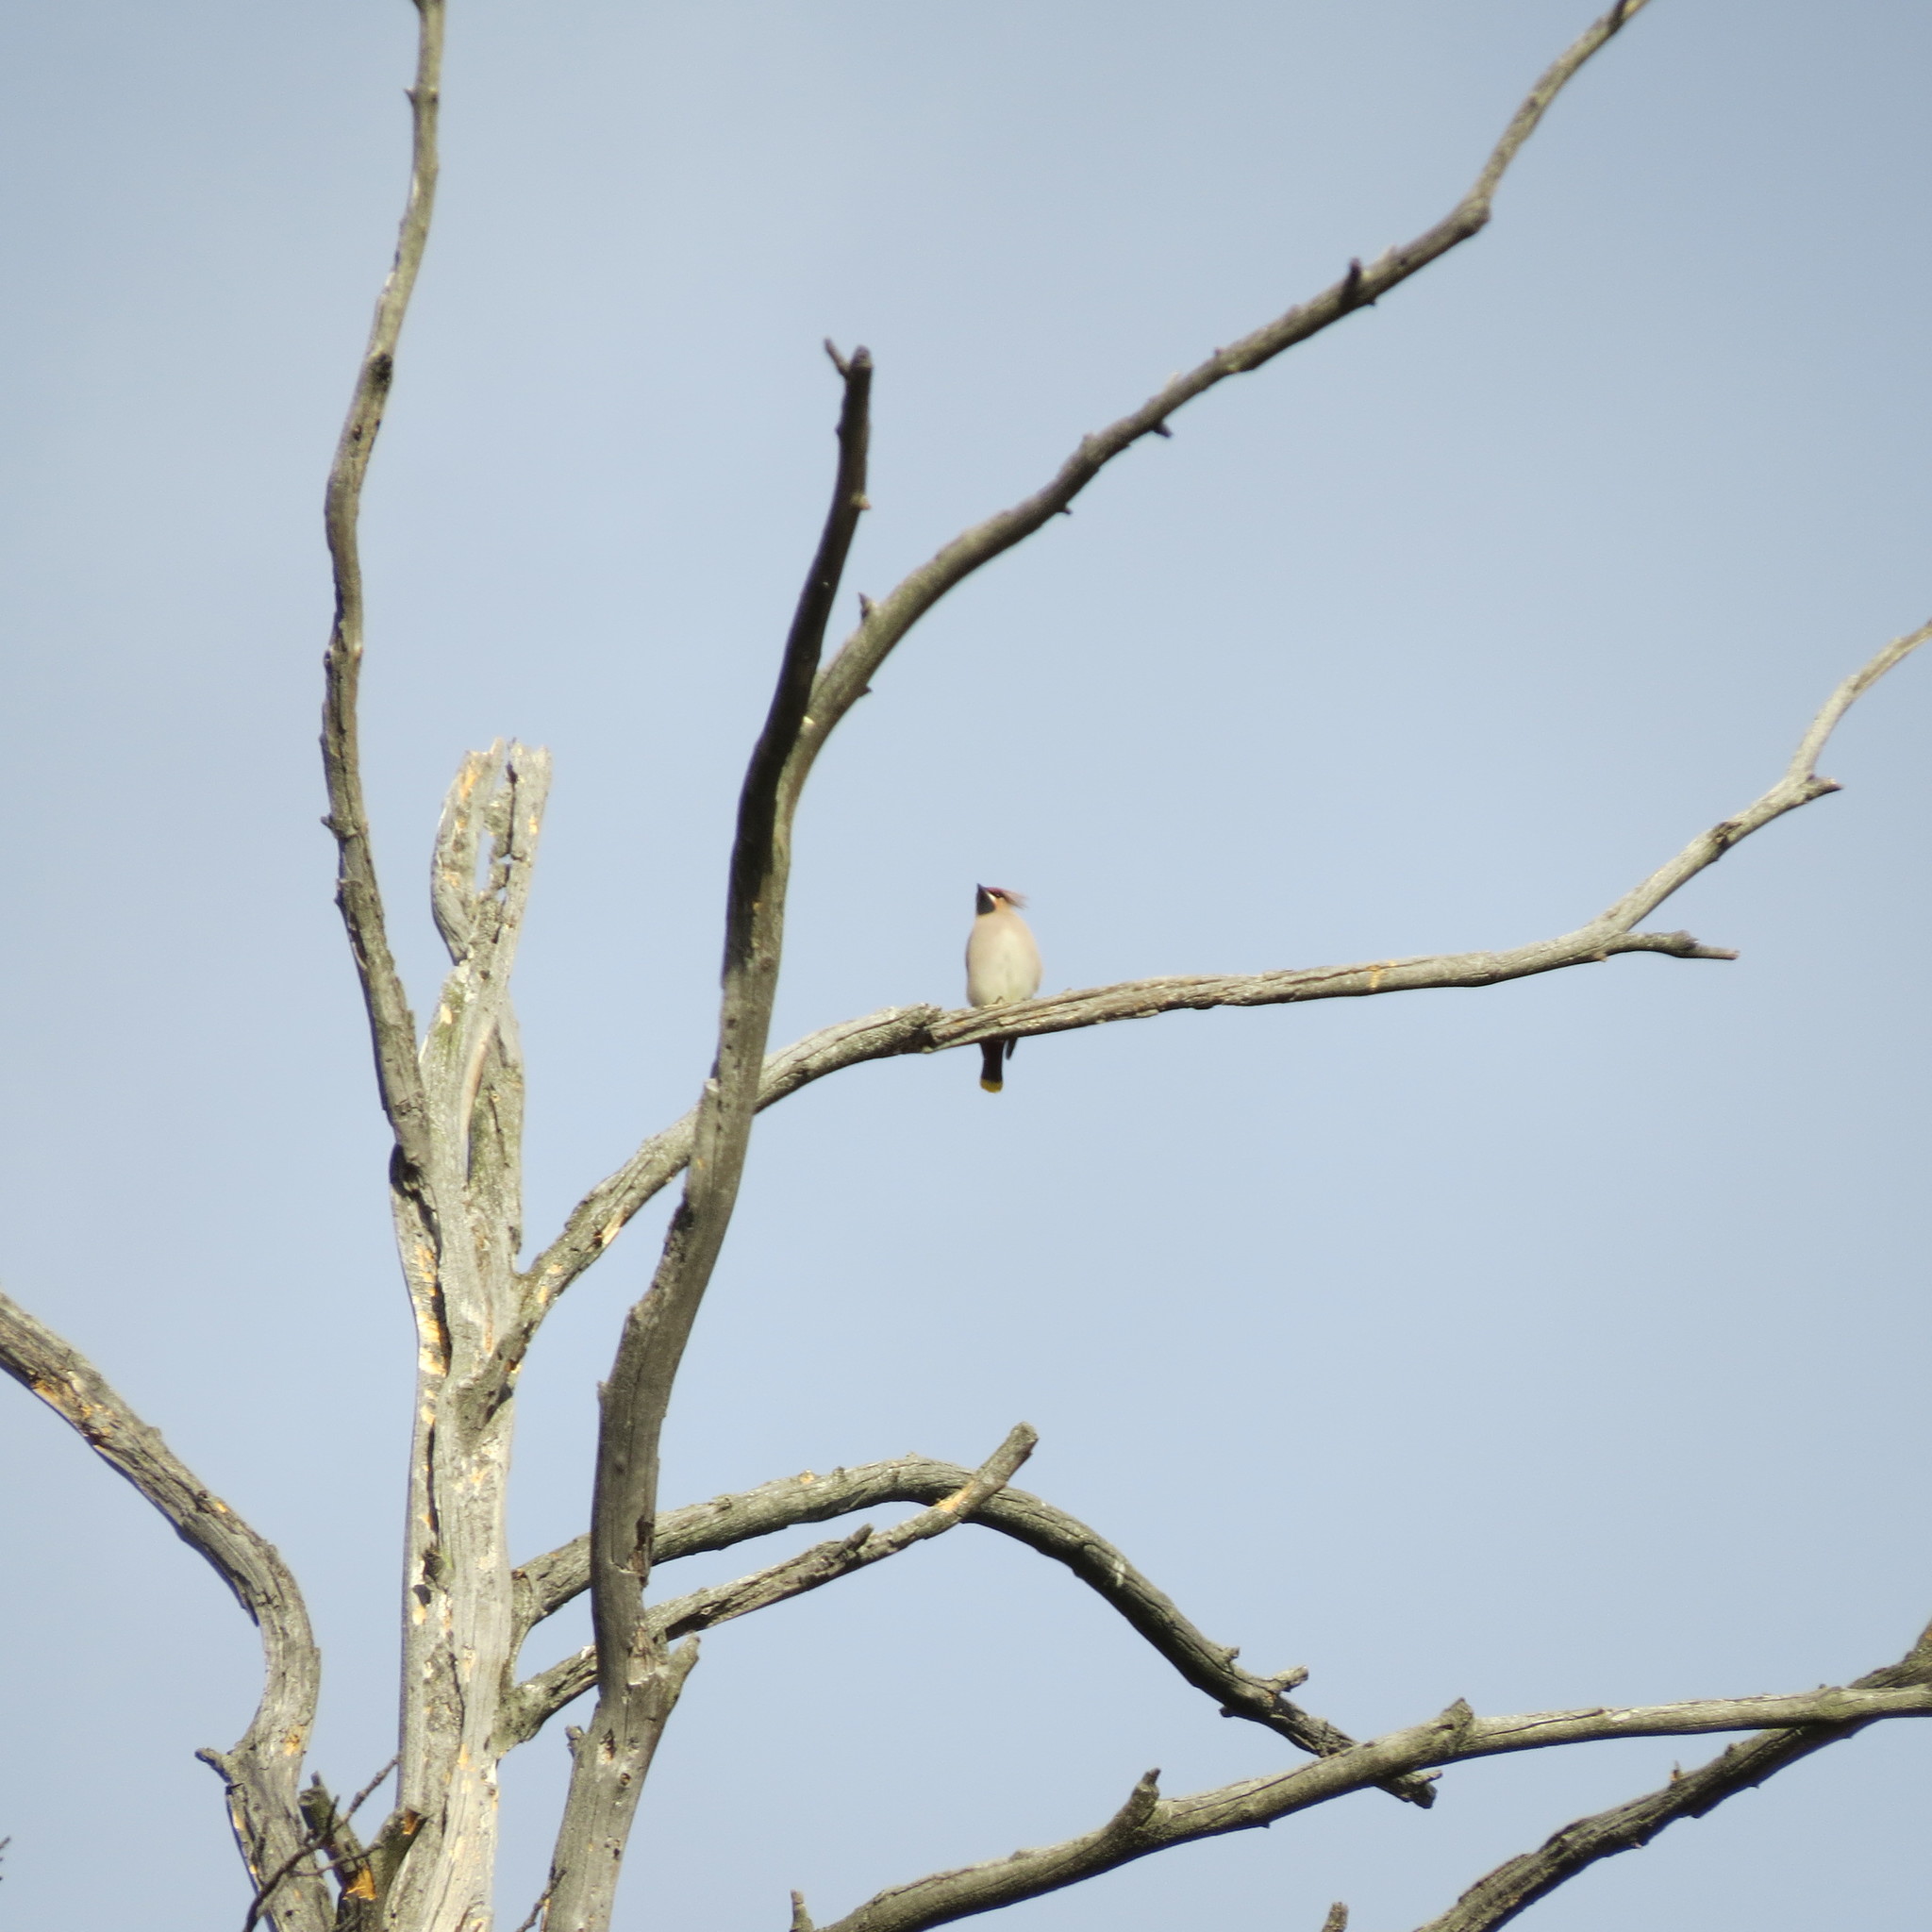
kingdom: Animalia
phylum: Chordata
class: Aves
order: Passeriformes
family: Bombycillidae
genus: Bombycilla
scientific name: Bombycilla garrulus
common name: Bohemian waxwing
